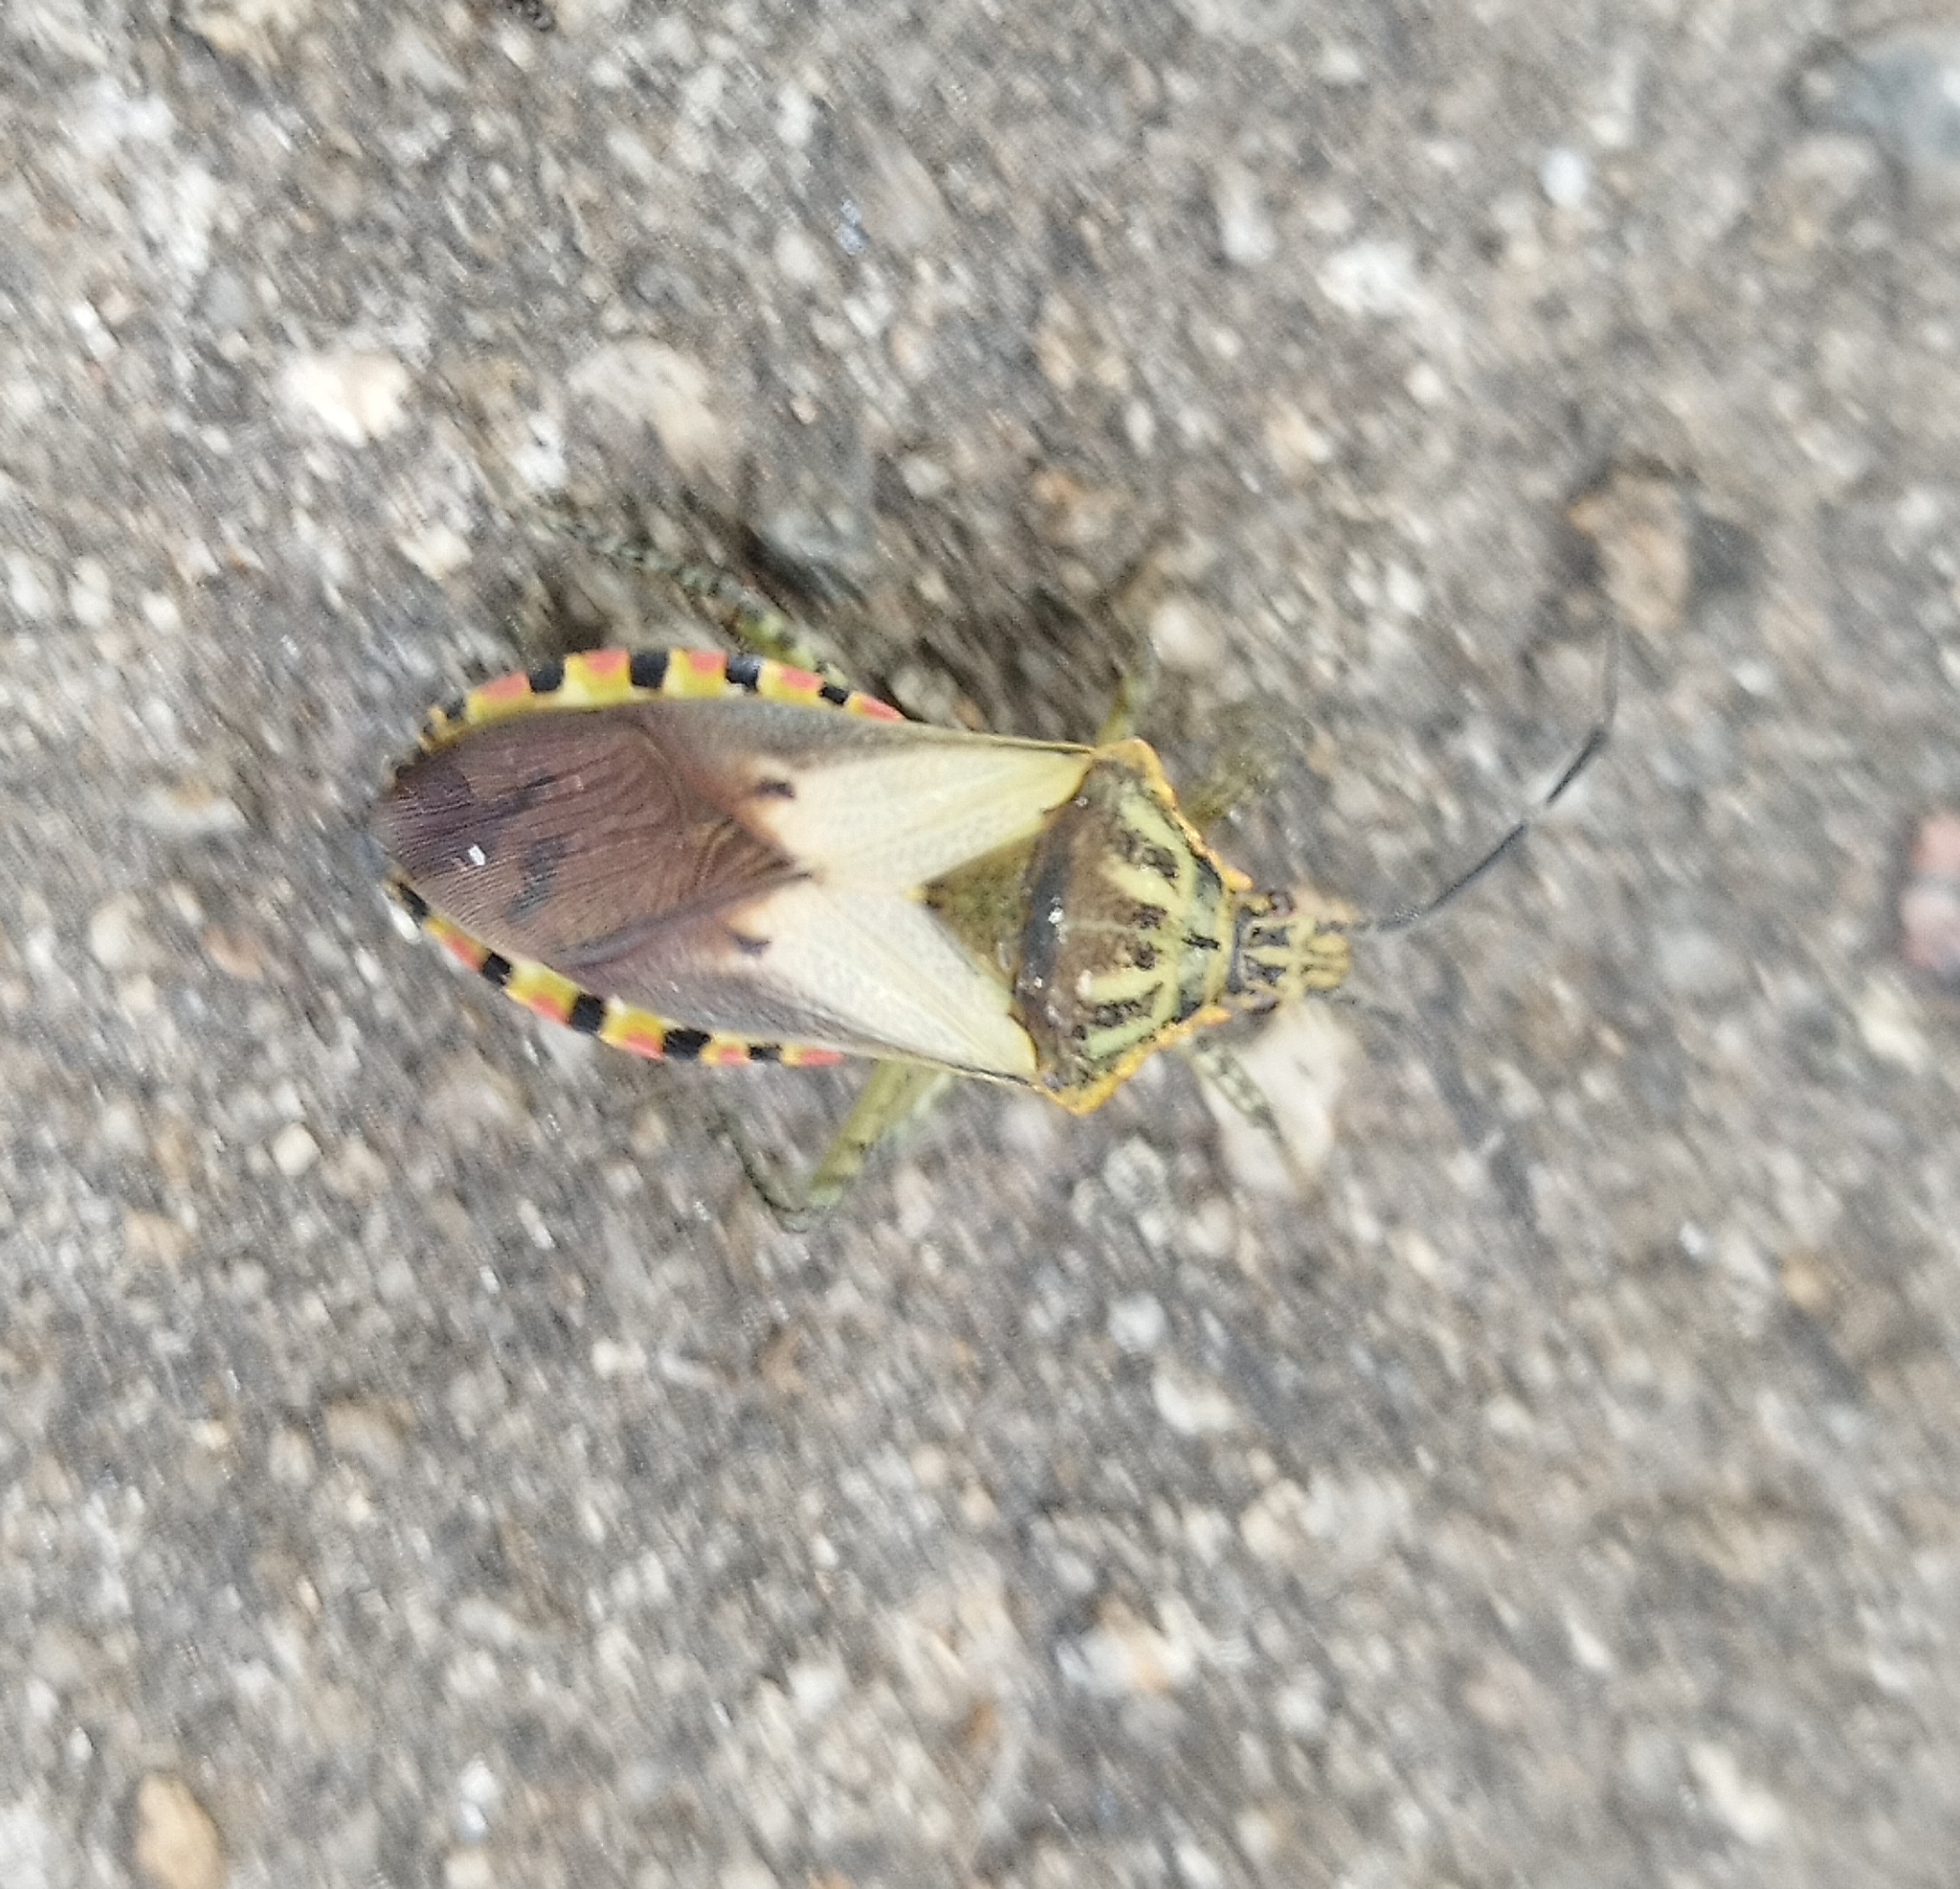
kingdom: Animalia
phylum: Arthropoda
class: Insecta
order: Hemiptera
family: Coreidae
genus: Acidomeria
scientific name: Acidomeria cincticornis
